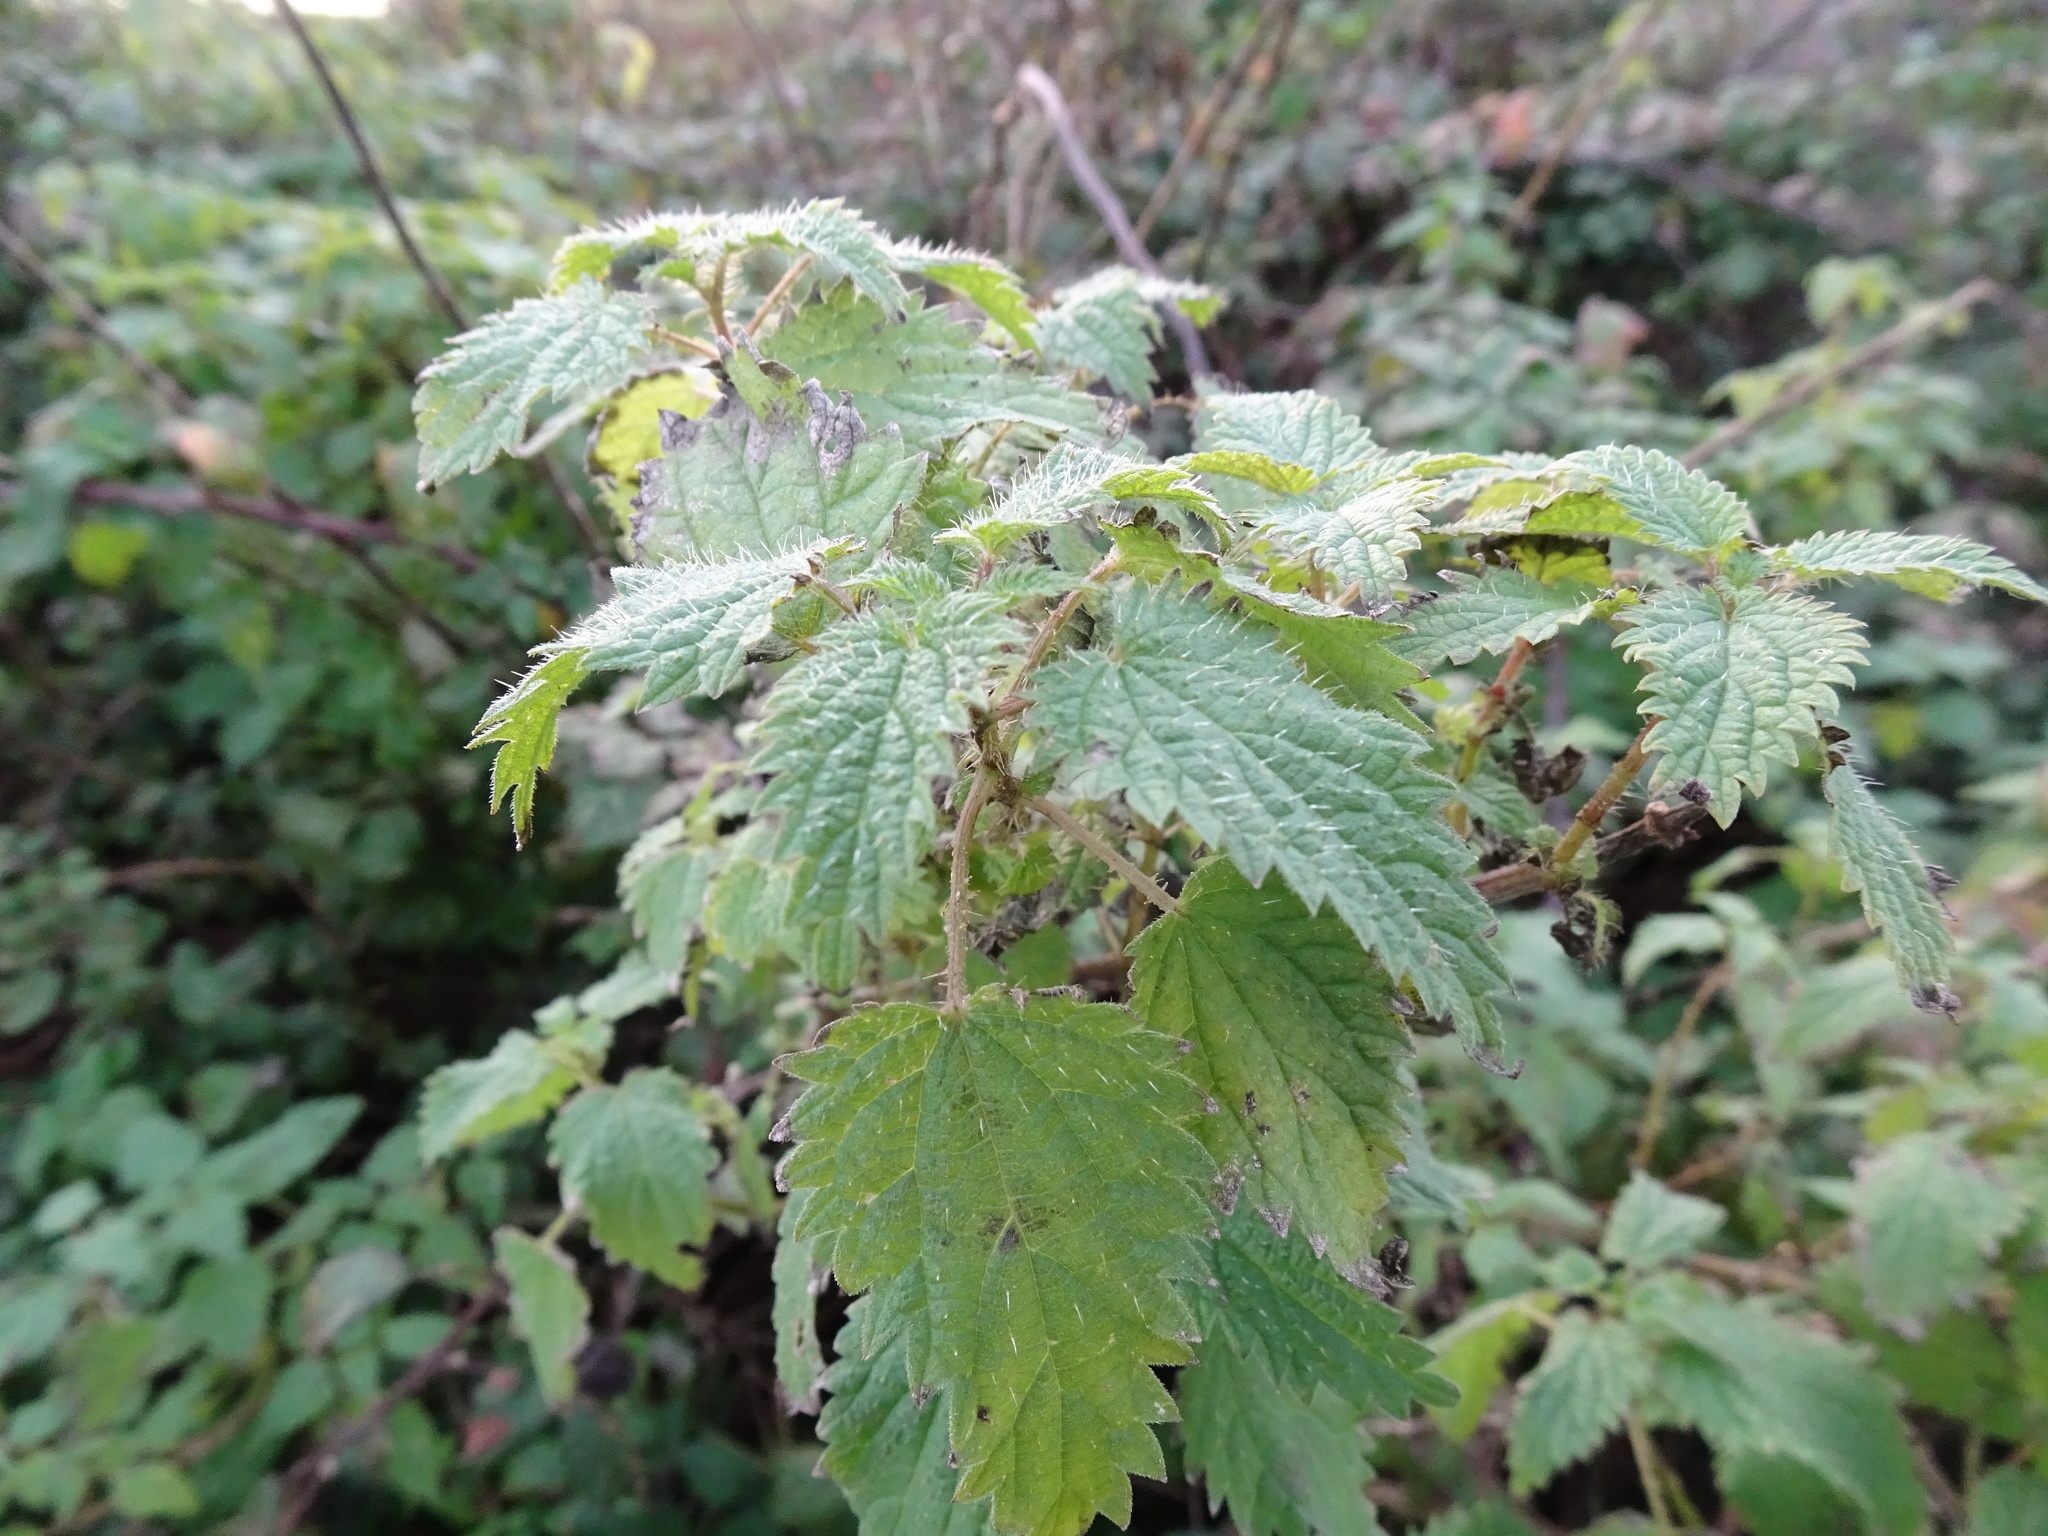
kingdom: Plantae
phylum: Tracheophyta
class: Magnoliopsida
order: Rosales
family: Urticaceae
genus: Urtica
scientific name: Urtica dioica
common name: Common nettle
